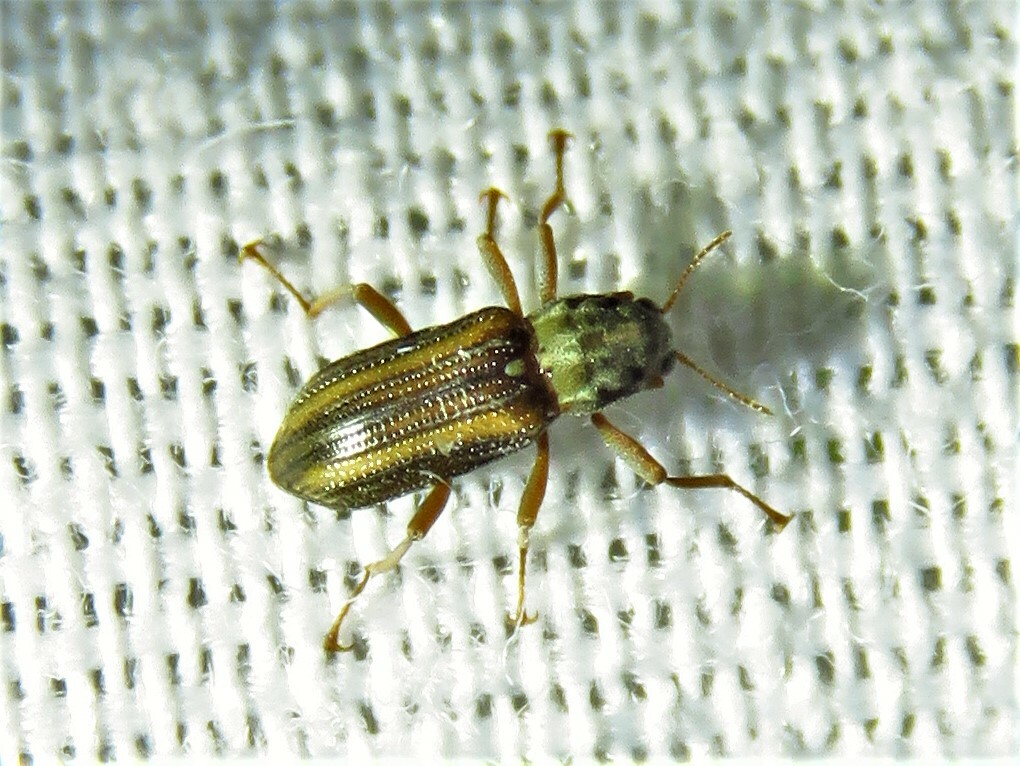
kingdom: Animalia
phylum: Arthropoda
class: Insecta
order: Coleoptera
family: Elmidae
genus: Stenelmis
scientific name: Stenelmis
